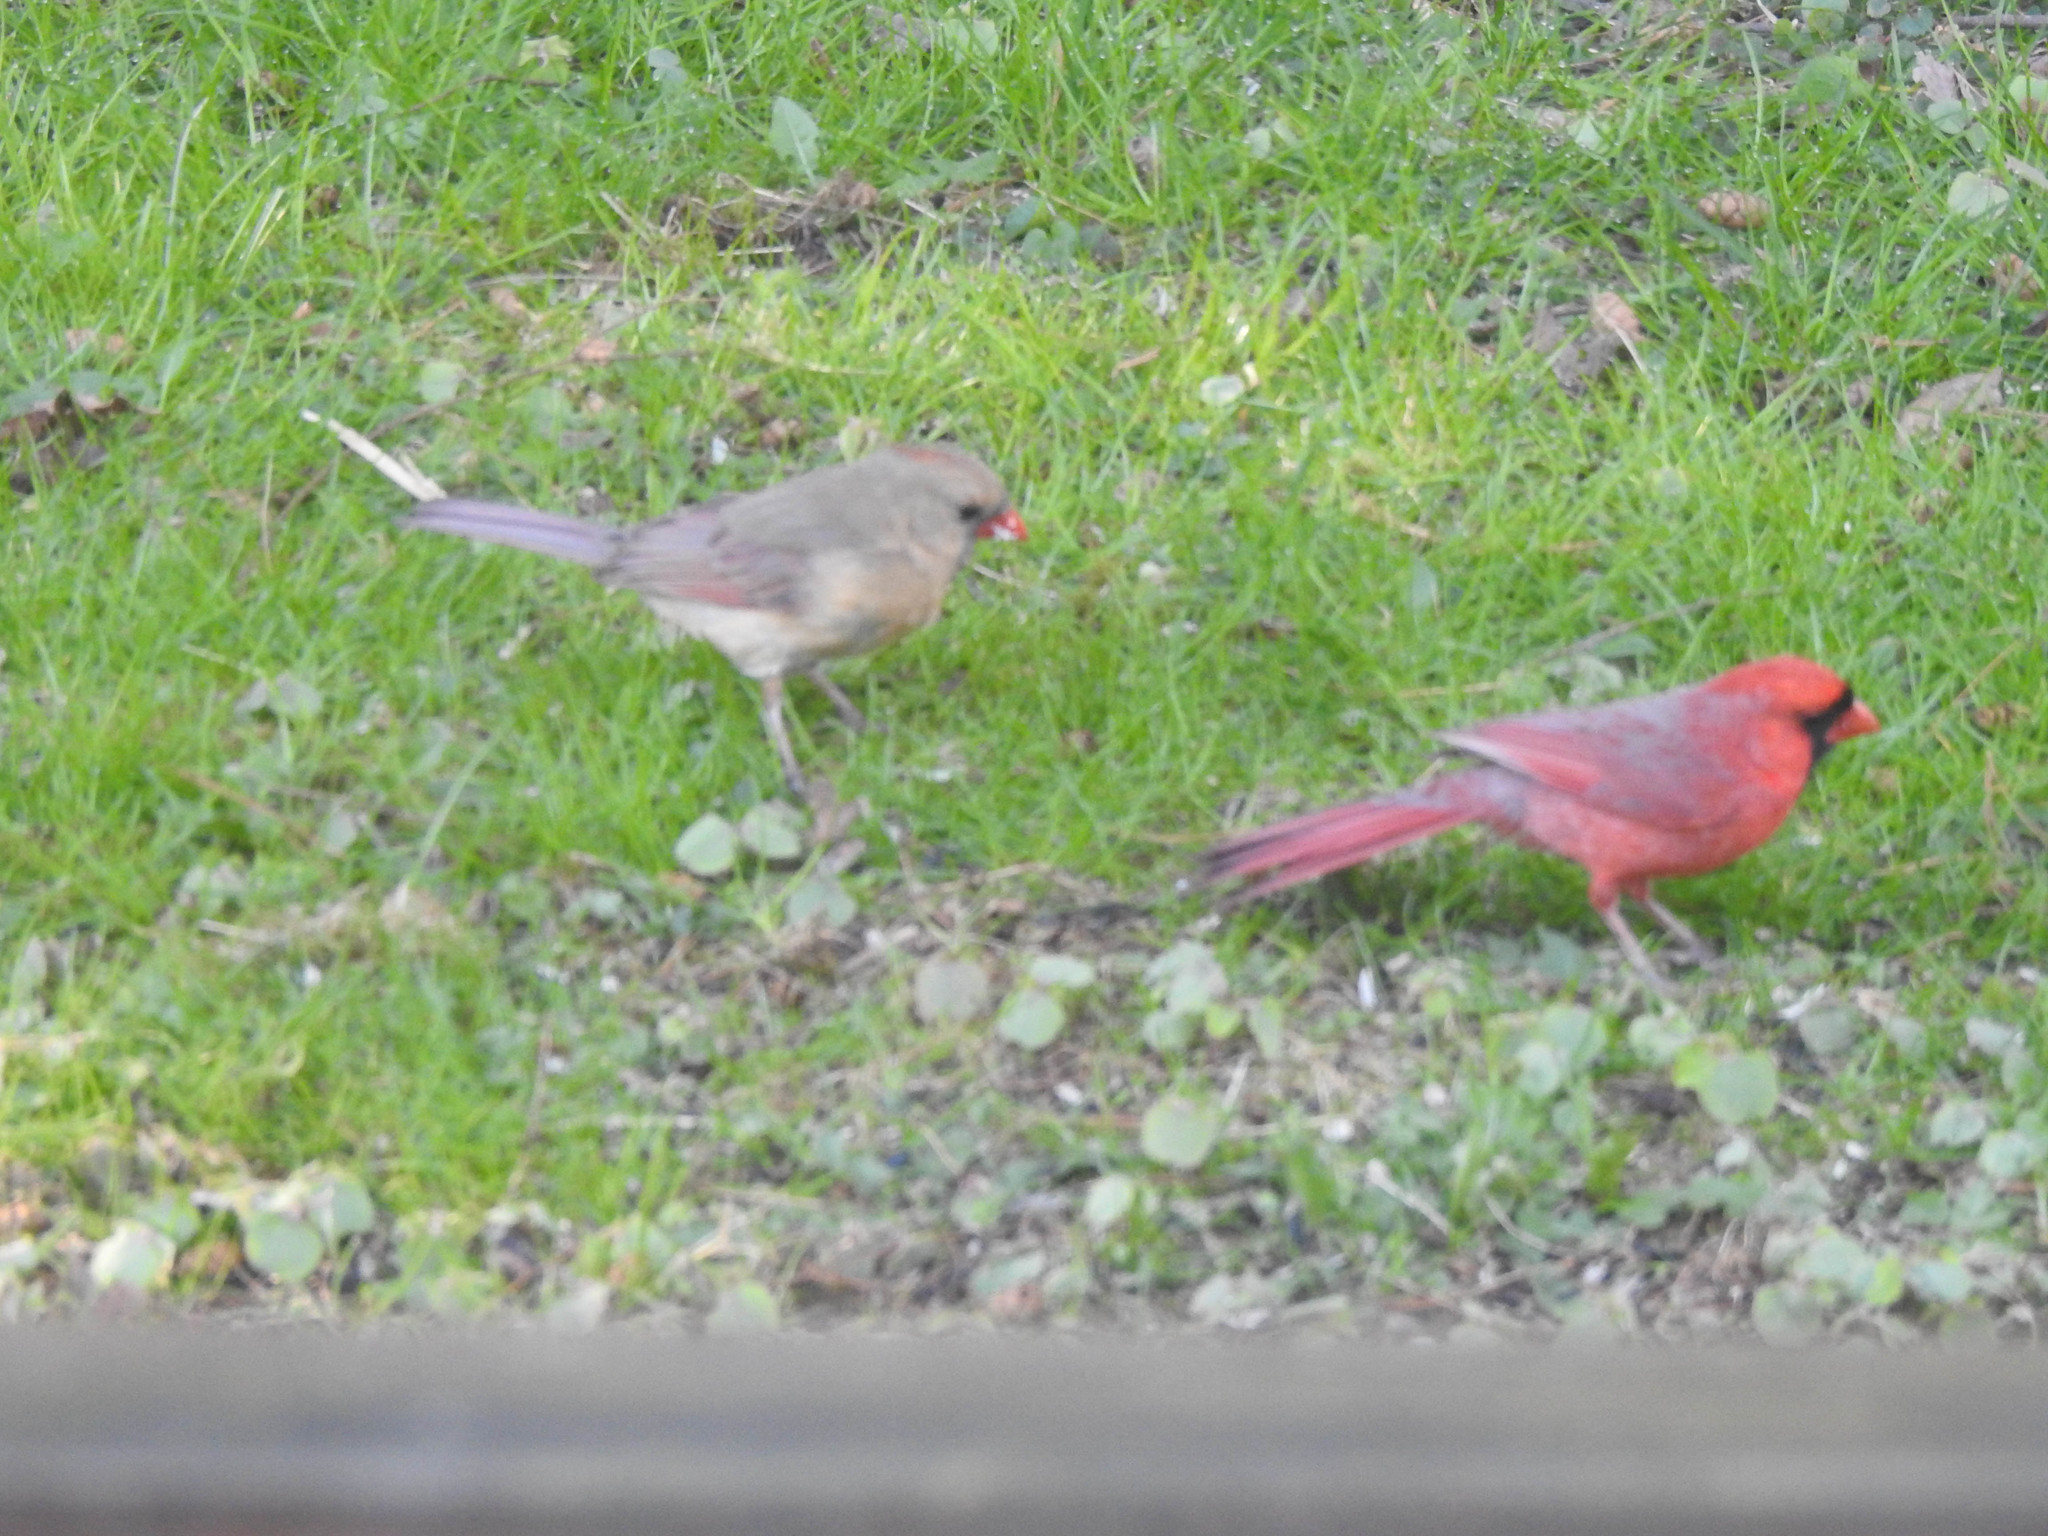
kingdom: Animalia
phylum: Chordata
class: Aves
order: Passeriformes
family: Cardinalidae
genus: Cardinalis
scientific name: Cardinalis cardinalis
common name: Northern cardinal
